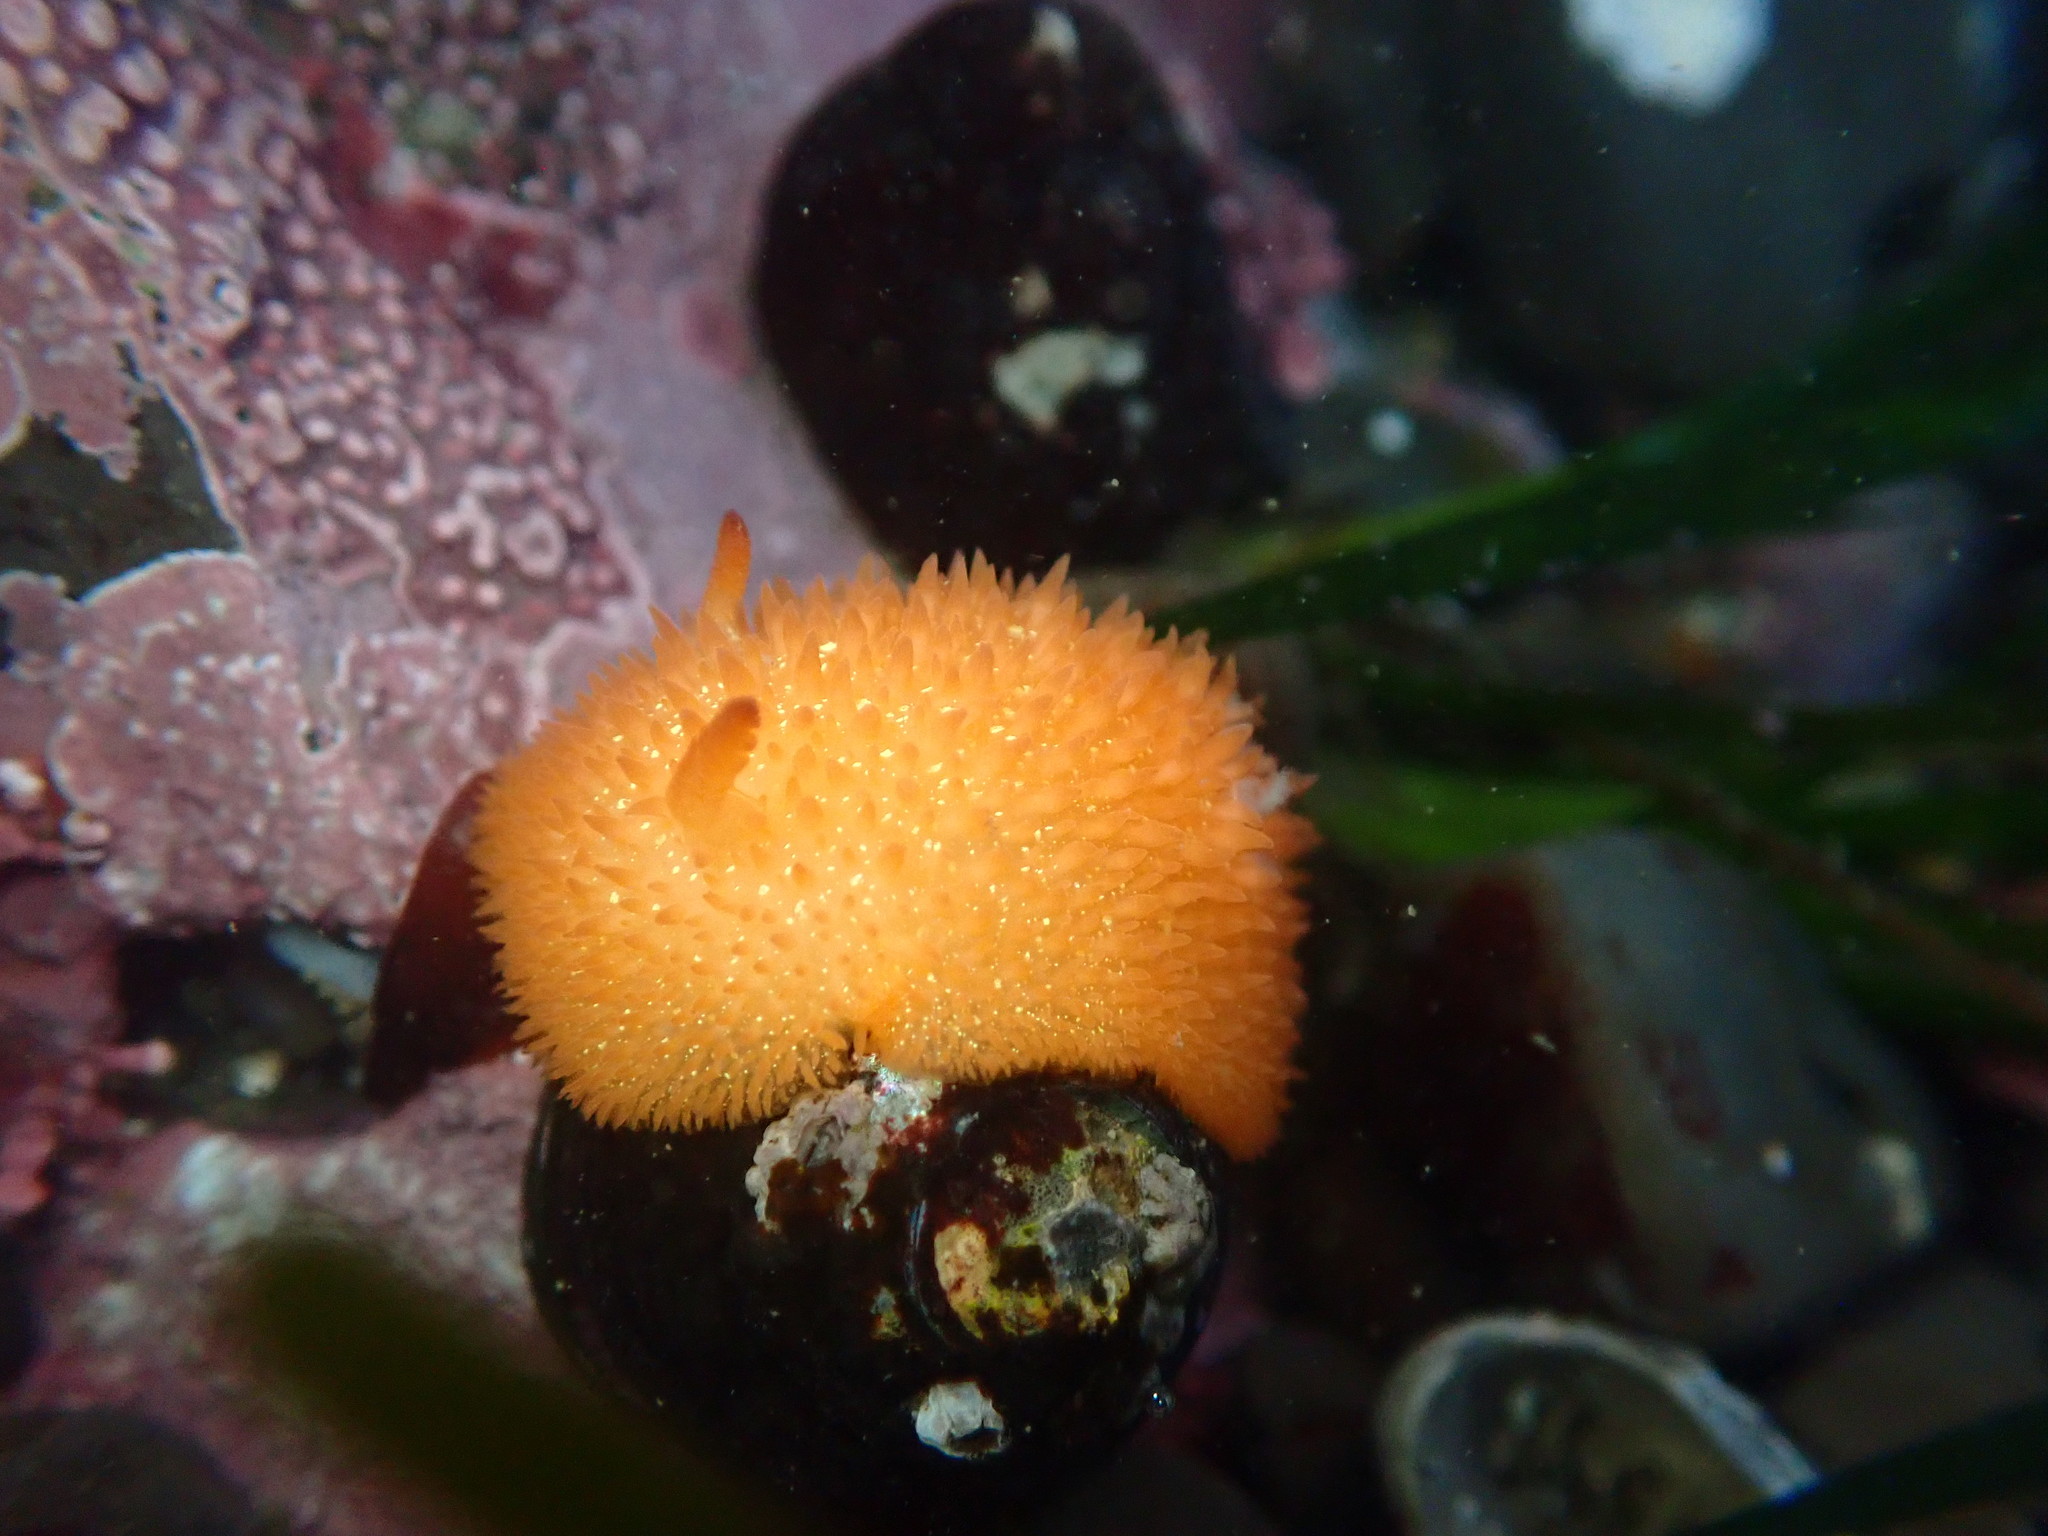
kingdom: Animalia
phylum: Mollusca
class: Gastropoda
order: Nudibranchia
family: Onchidorididae
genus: Acanthodoris
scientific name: Acanthodoris lutea
